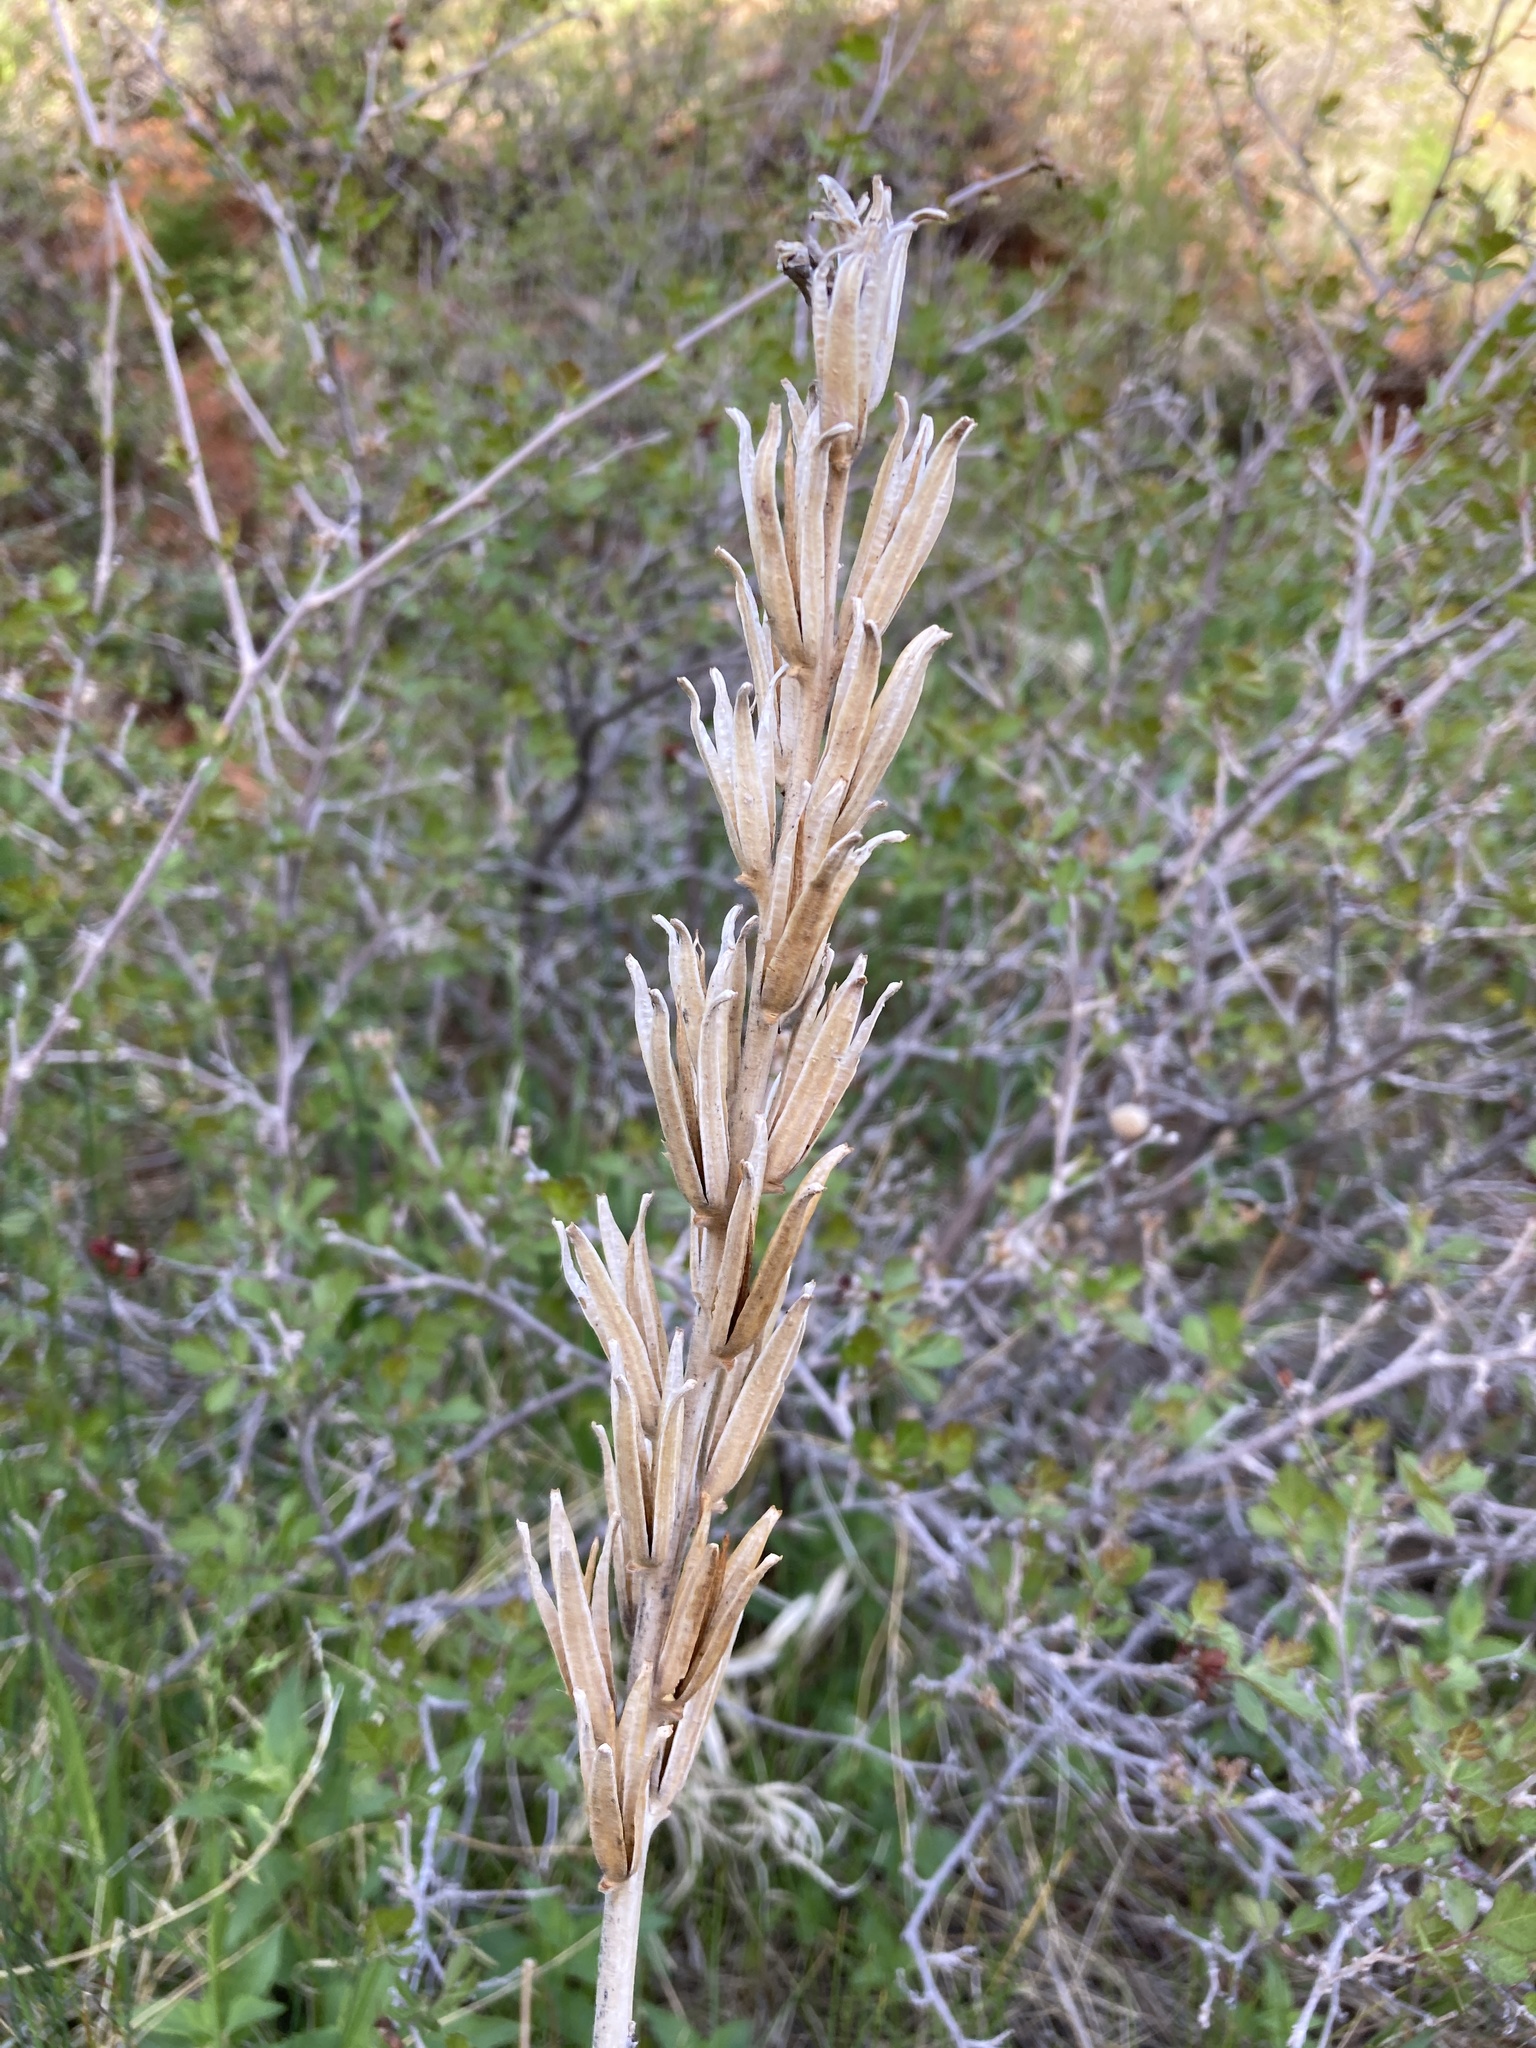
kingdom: Plantae
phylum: Tracheophyta
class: Magnoliopsida
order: Myrtales
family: Onagraceae
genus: Oenothera
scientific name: Oenothera villosa
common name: Hairy evening-primrose
